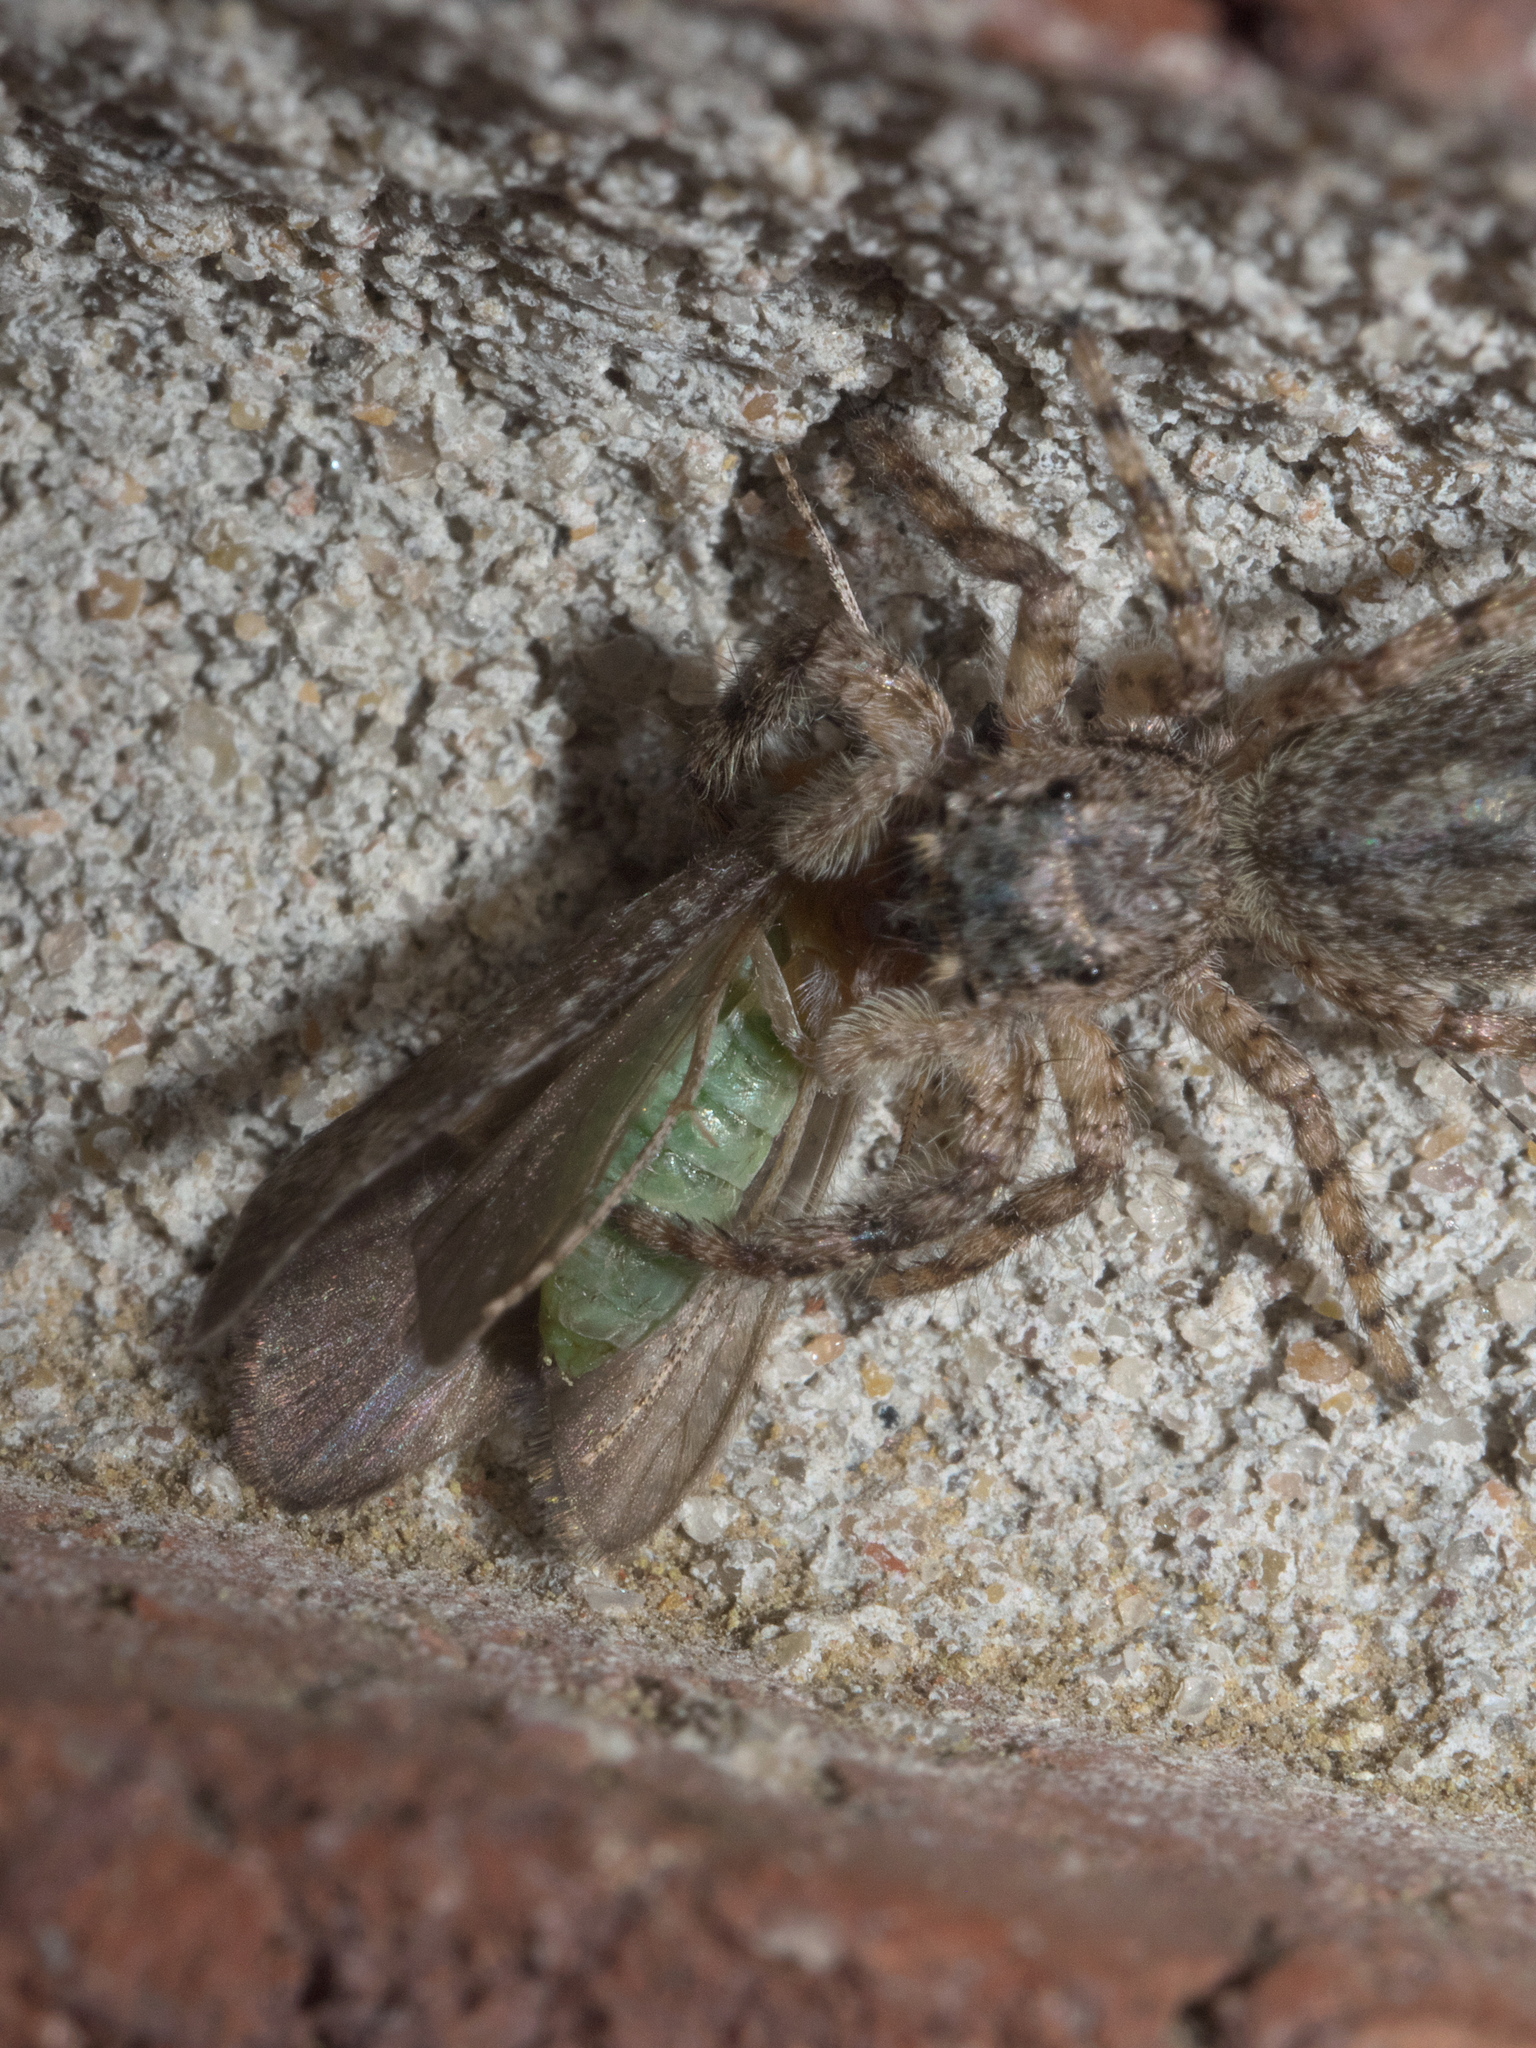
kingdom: Animalia
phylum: Arthropoda
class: Arachnida
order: Araneae
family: Salticidae
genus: Platycryptus
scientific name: Platycryptus undatus
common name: Tan jumping spider
